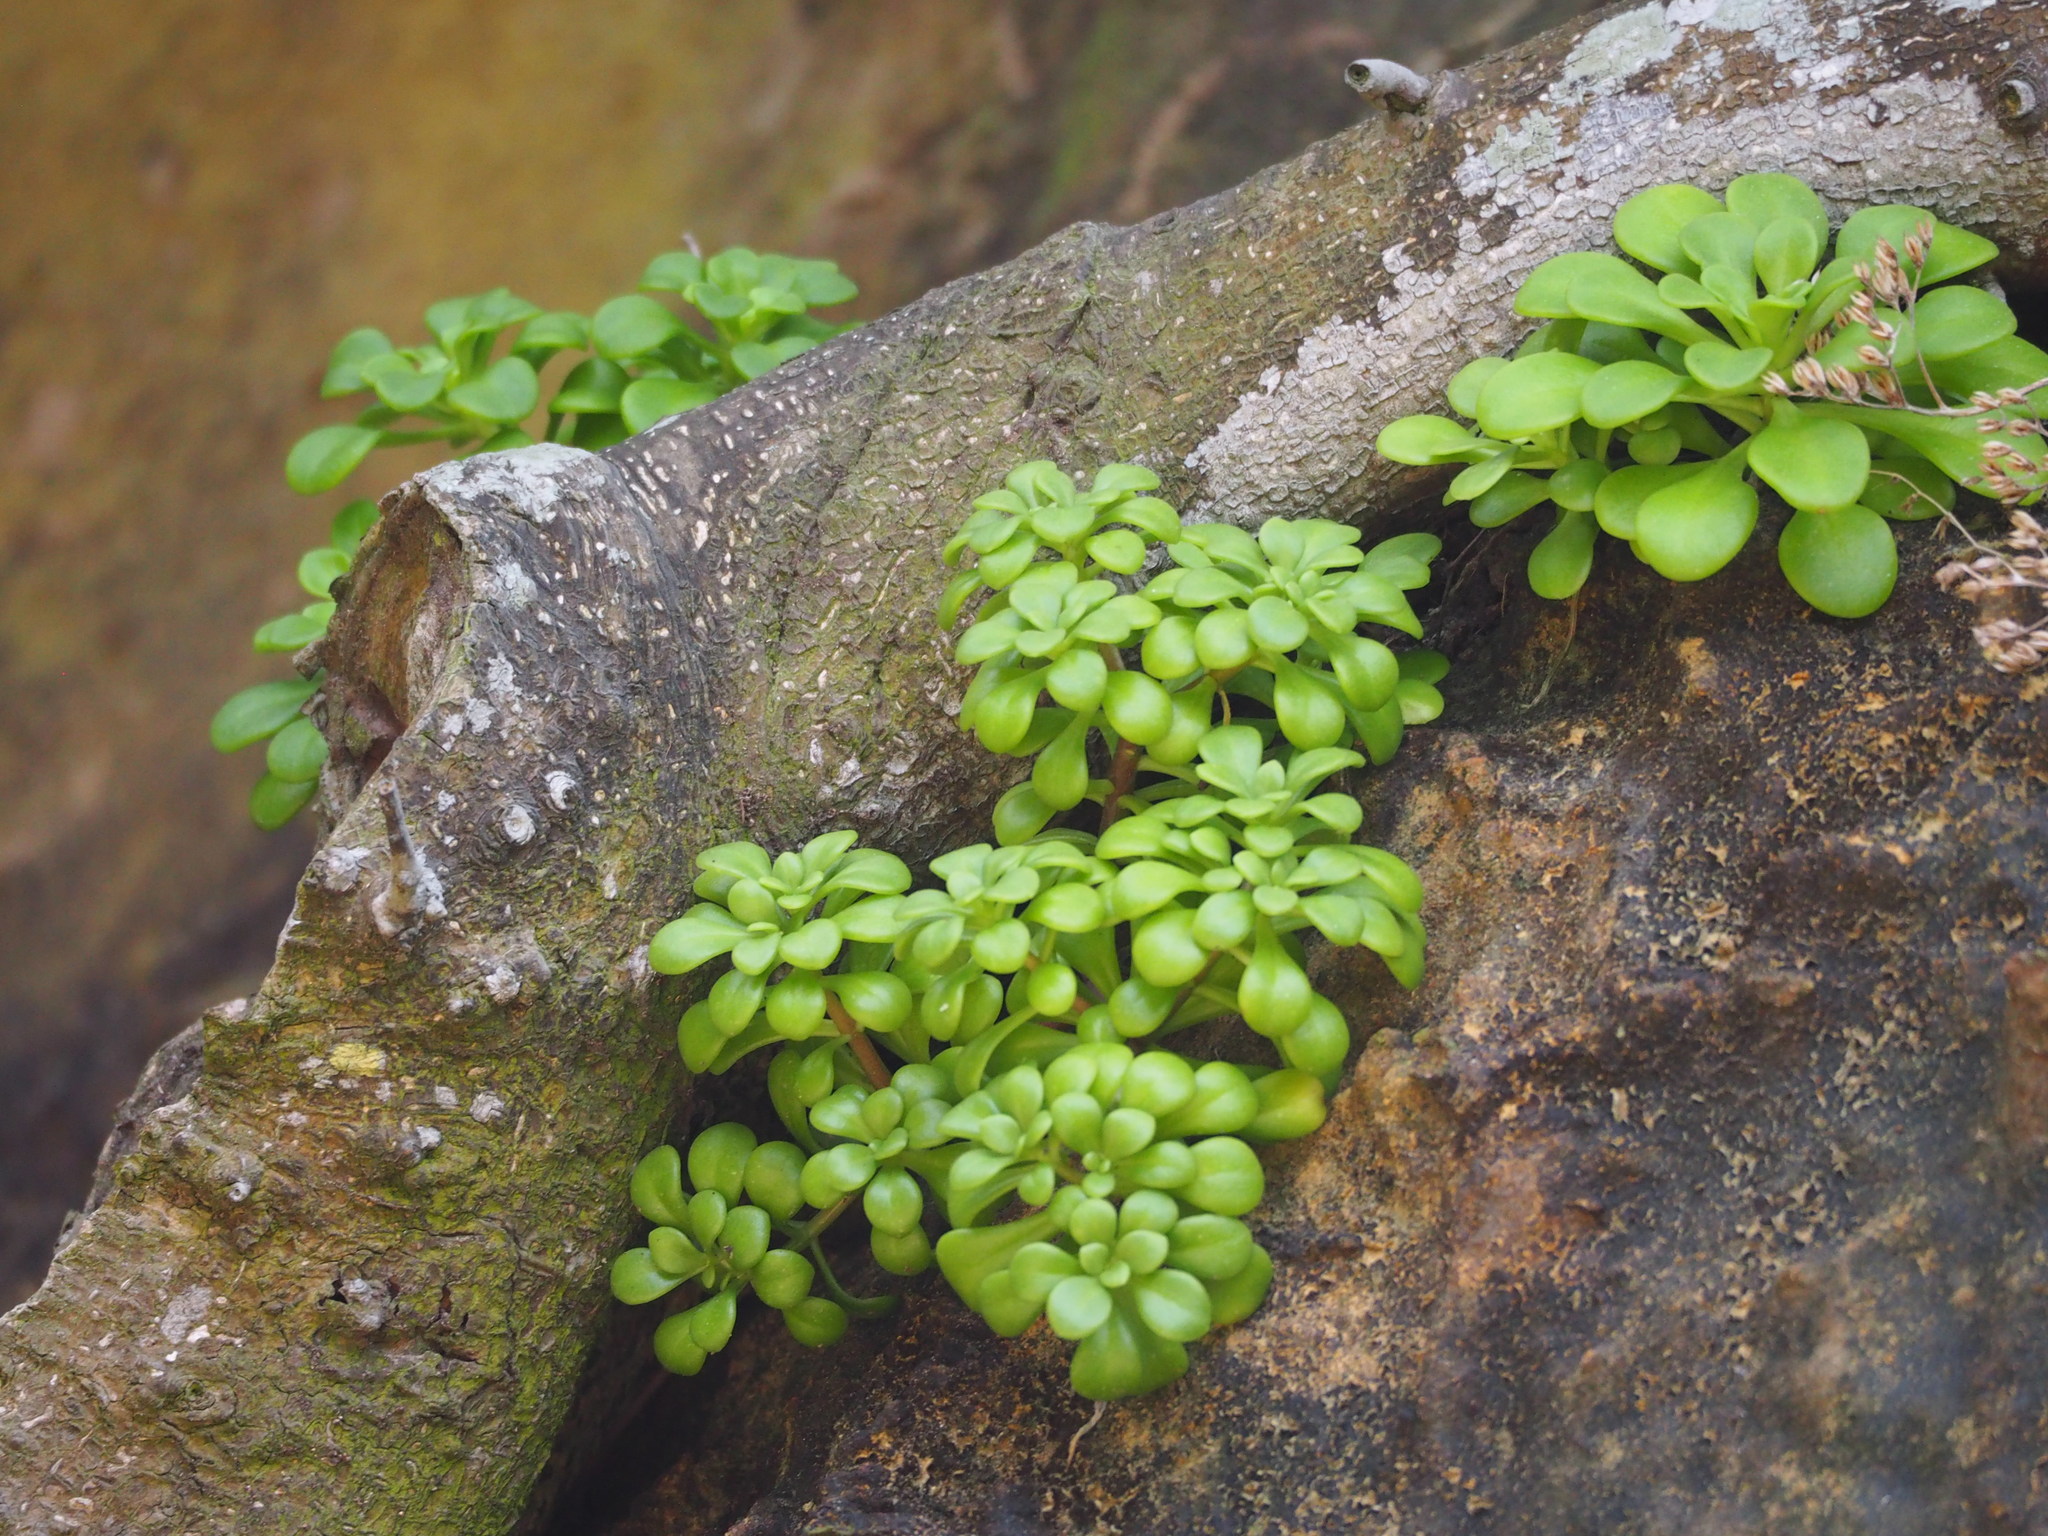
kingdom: Plantae
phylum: Tracheophyta
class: Magnoliopsida
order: Saxifragales
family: Crassulaceae
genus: Sedum
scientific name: Sedum formosanum
